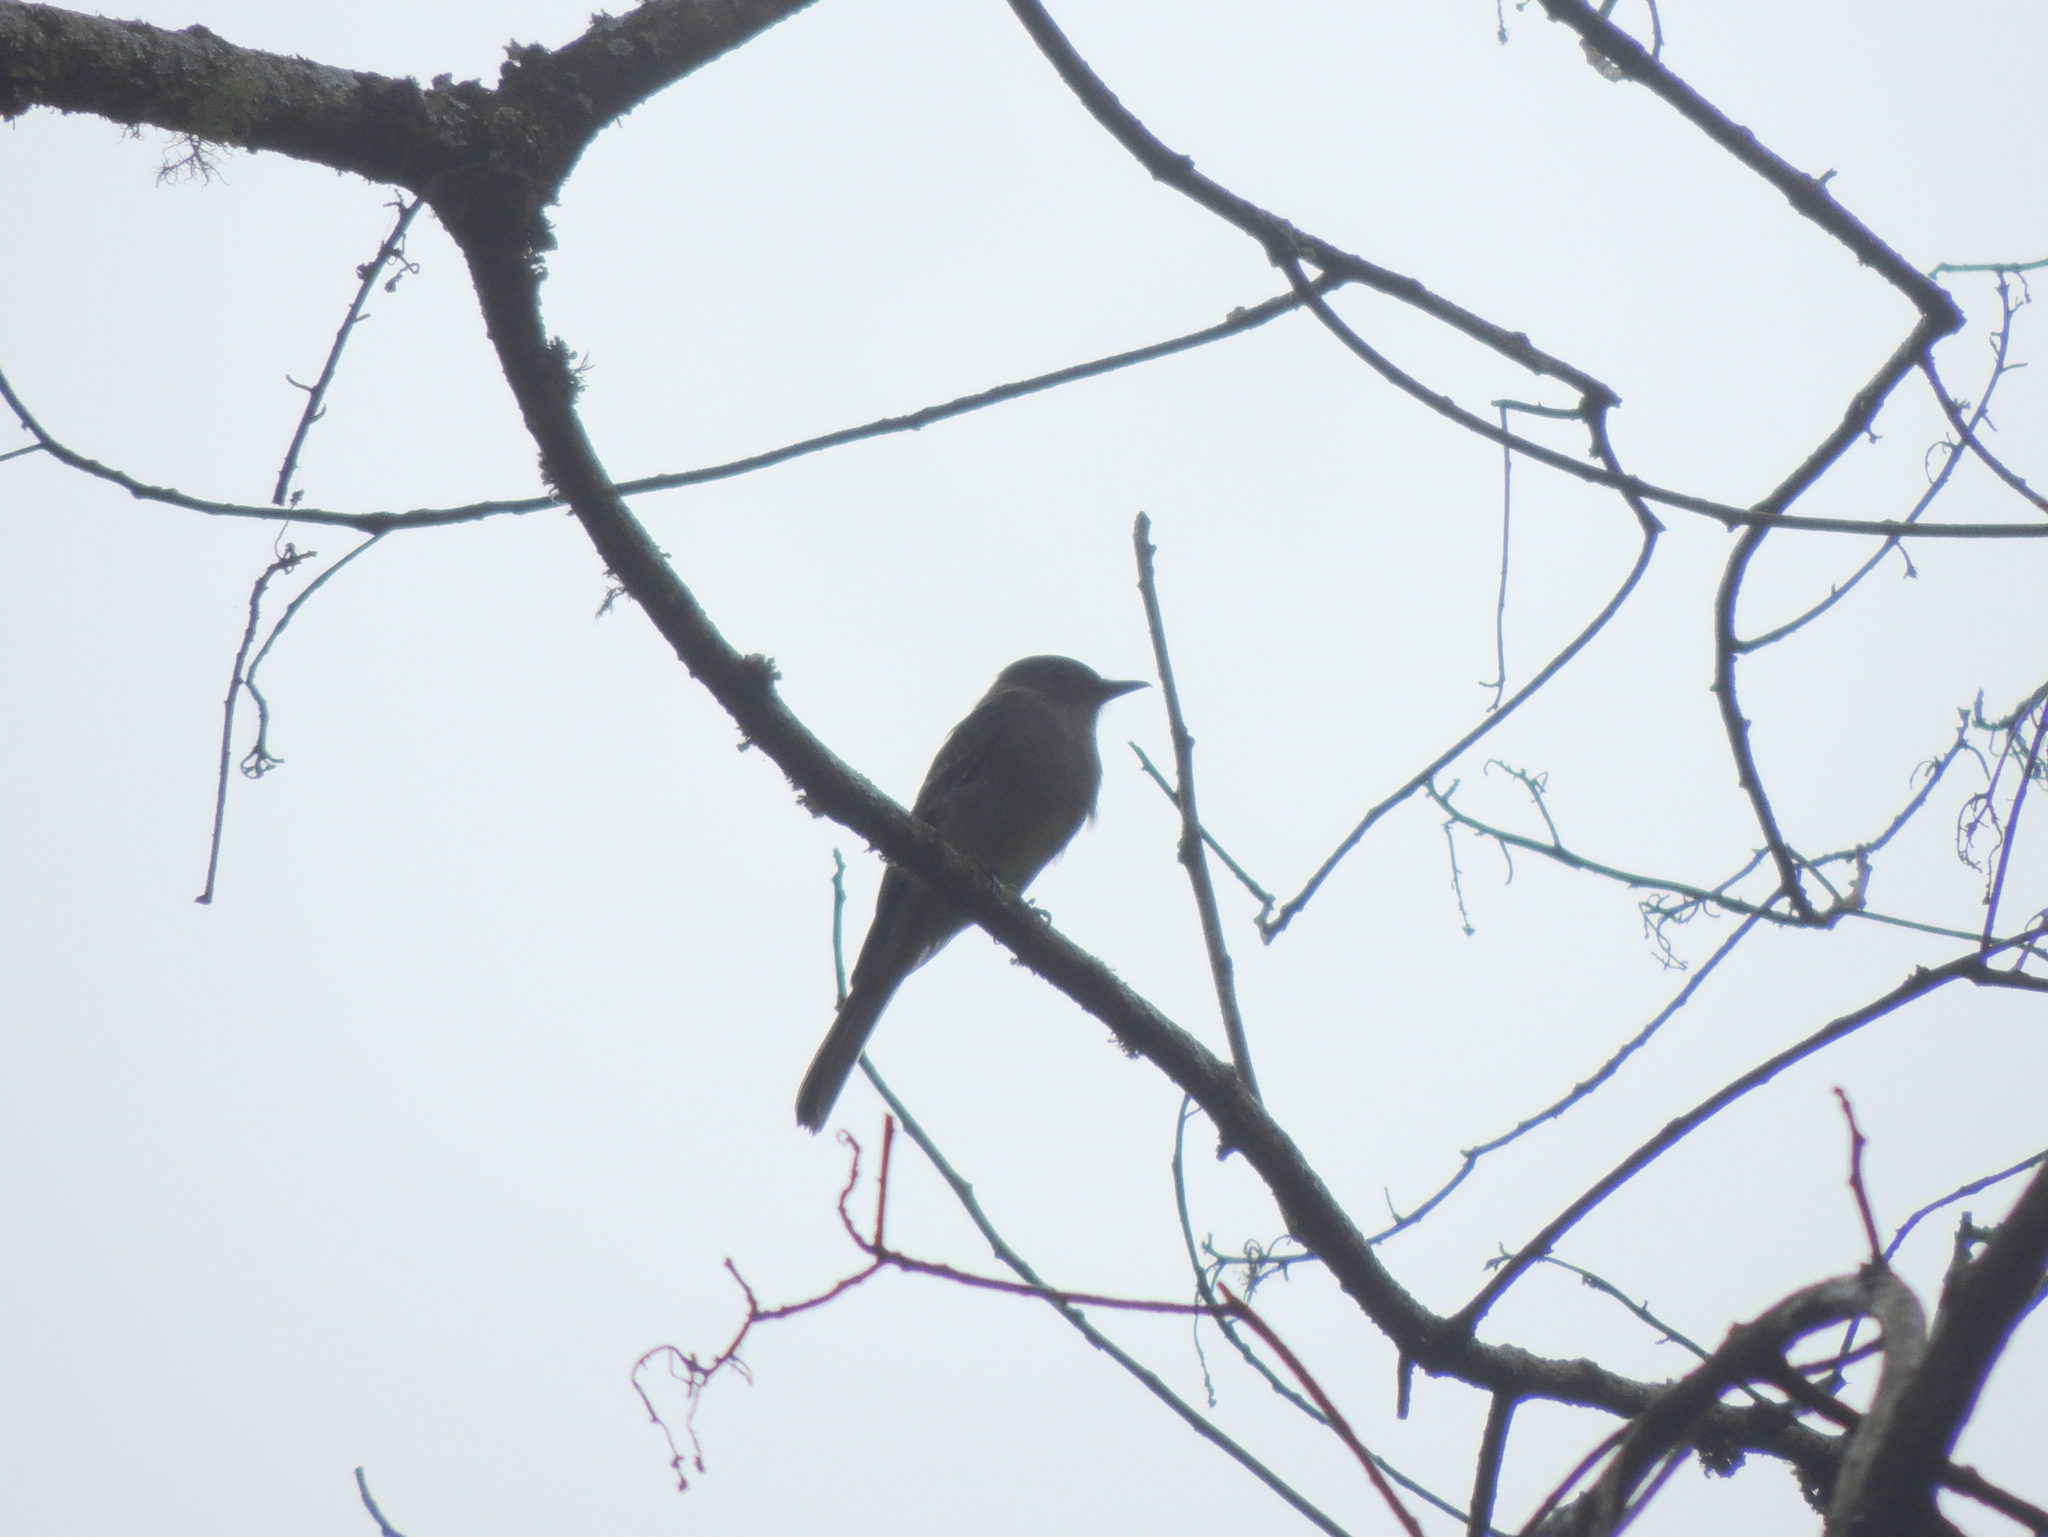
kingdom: Animalia
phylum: Chordata
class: Aves
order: Passeriformes
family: Tyrannidae
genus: Contopus
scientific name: Contopus fumigatus
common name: Smoke-colored pewee
